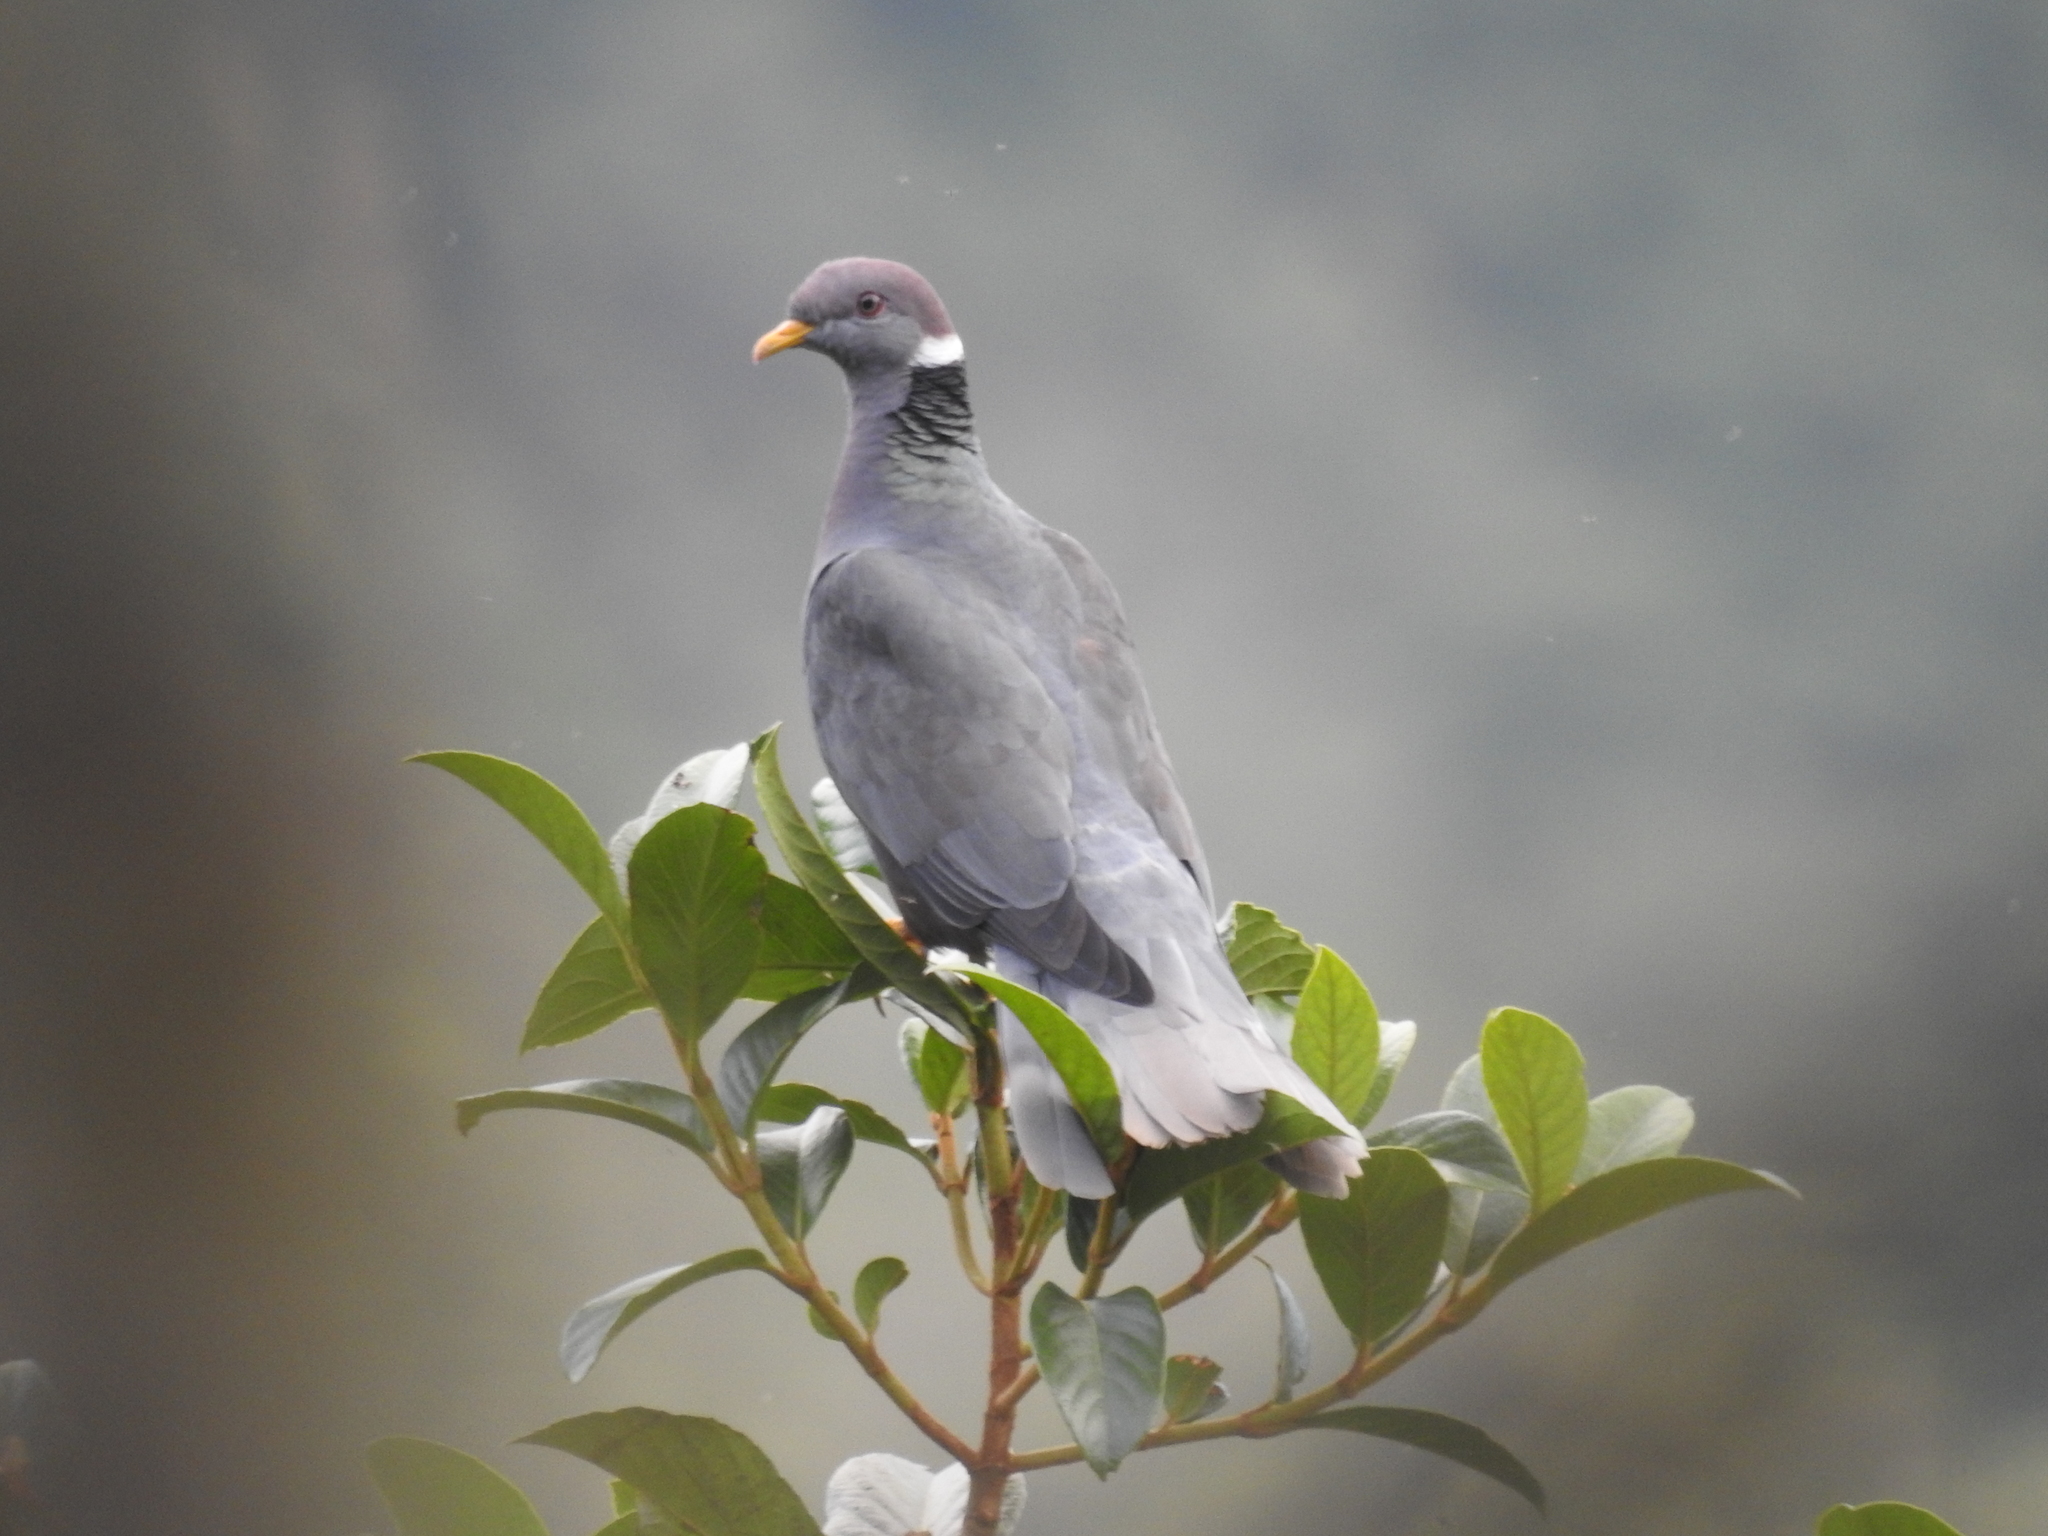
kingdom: Animalia
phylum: Chordata
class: Aves
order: Columbiformes
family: Columbidae
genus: Patagioenas
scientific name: Patagioenas fasciata
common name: Band-tailed pigeon
